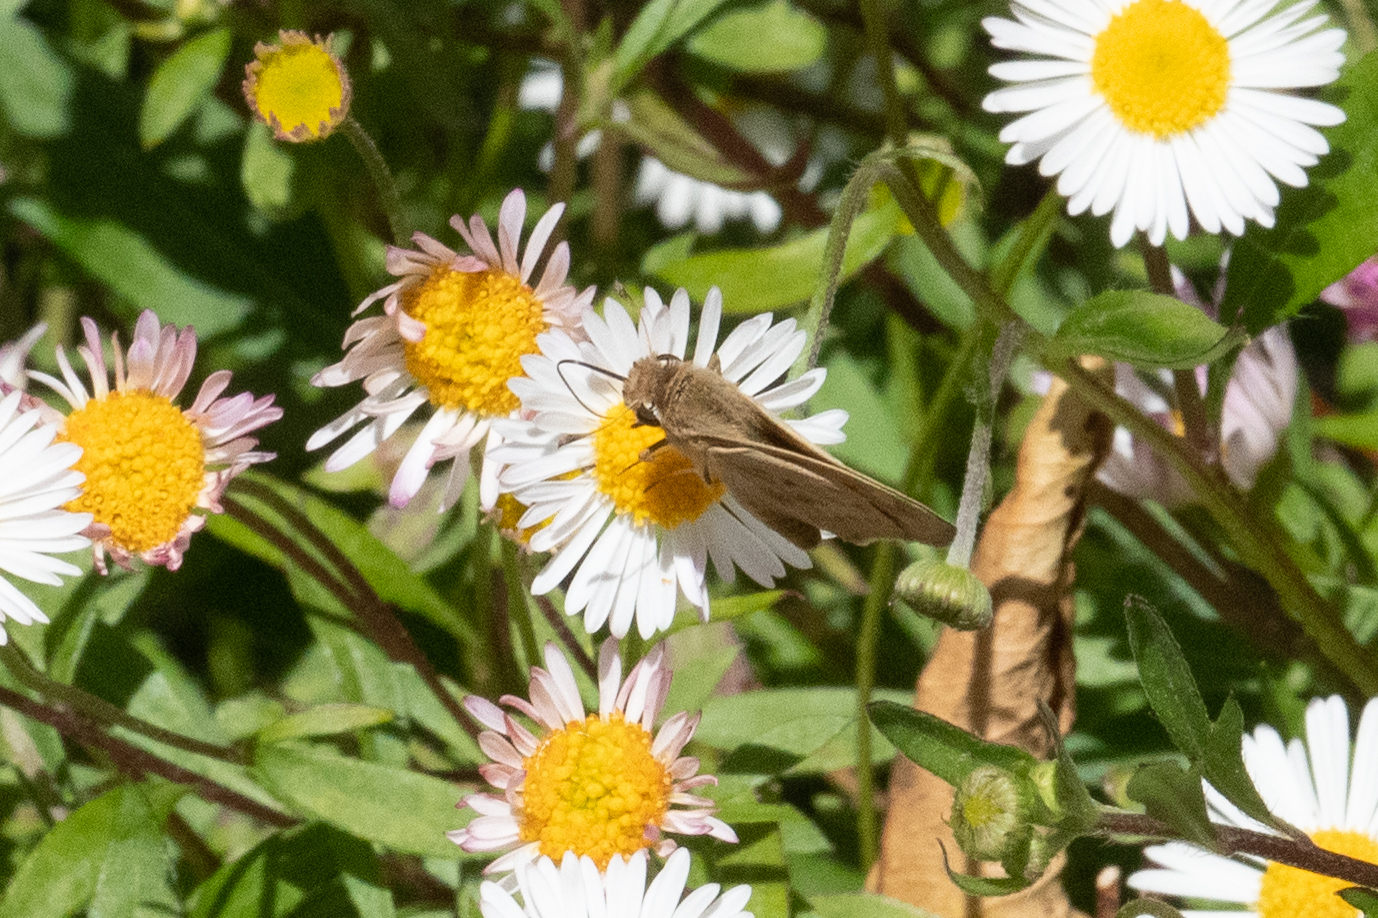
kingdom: Animalia
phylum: Arthropoda
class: Insecta
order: Lepidoptera
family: Hesperiidae
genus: Hylephila
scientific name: Hylephila phyleus
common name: Fiery skipper
